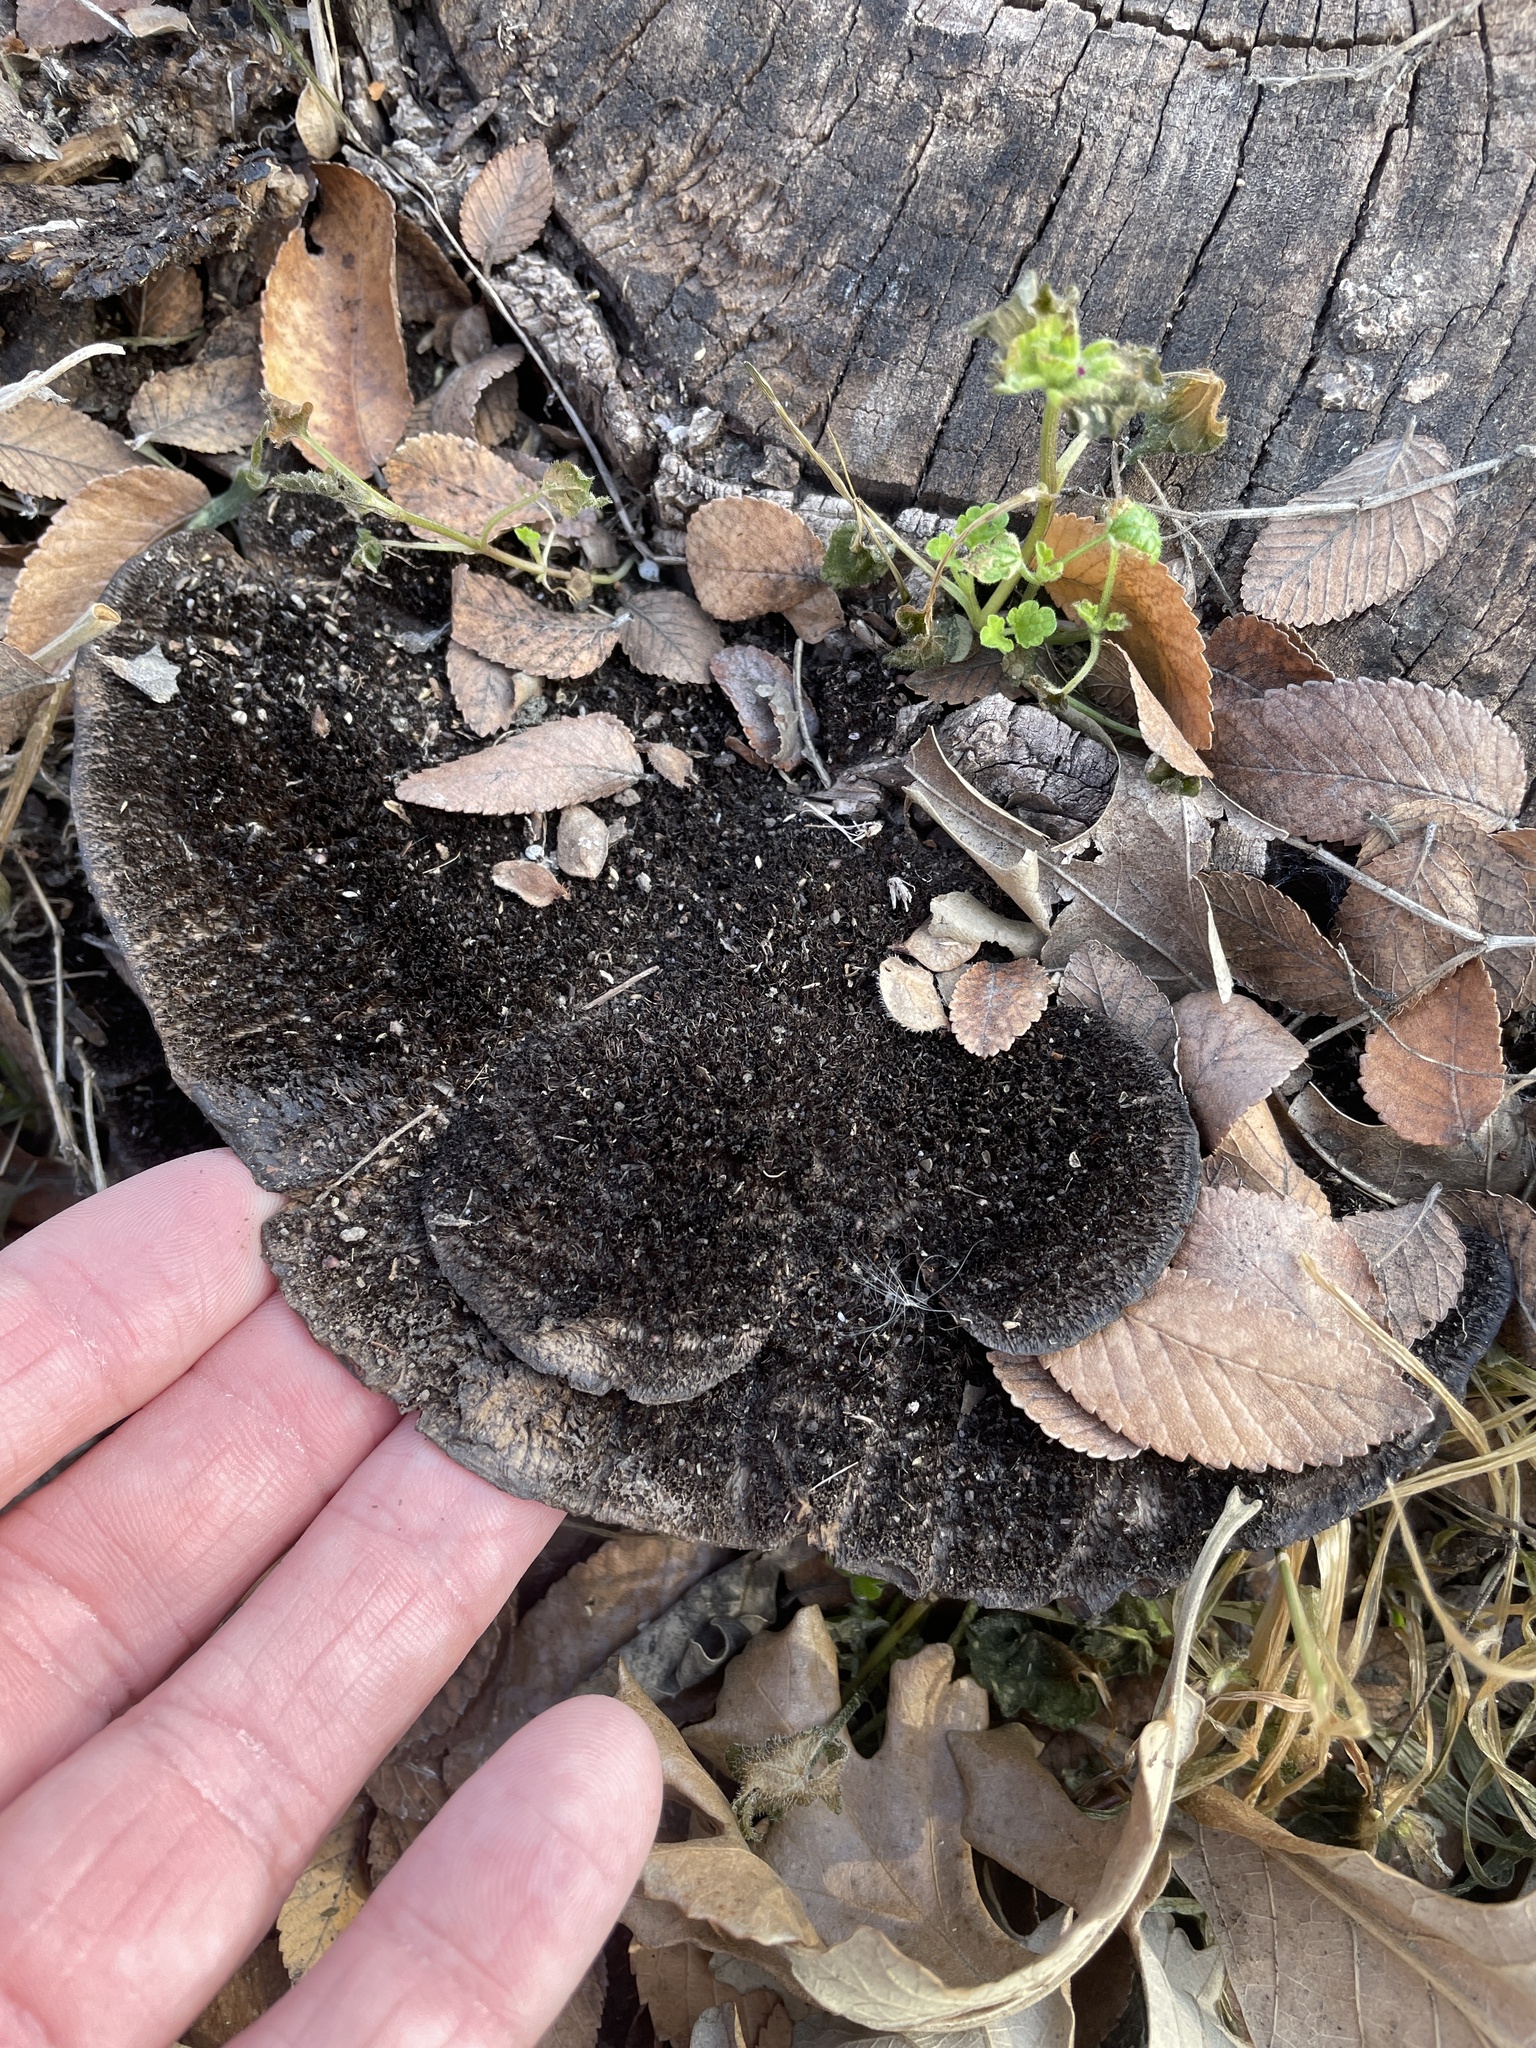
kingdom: Fungi
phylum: Basidiomycota
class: Agaricomycetes
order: Polyporales
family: Cerrenaceae
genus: Cerrena
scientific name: Cerrena hydnoides
